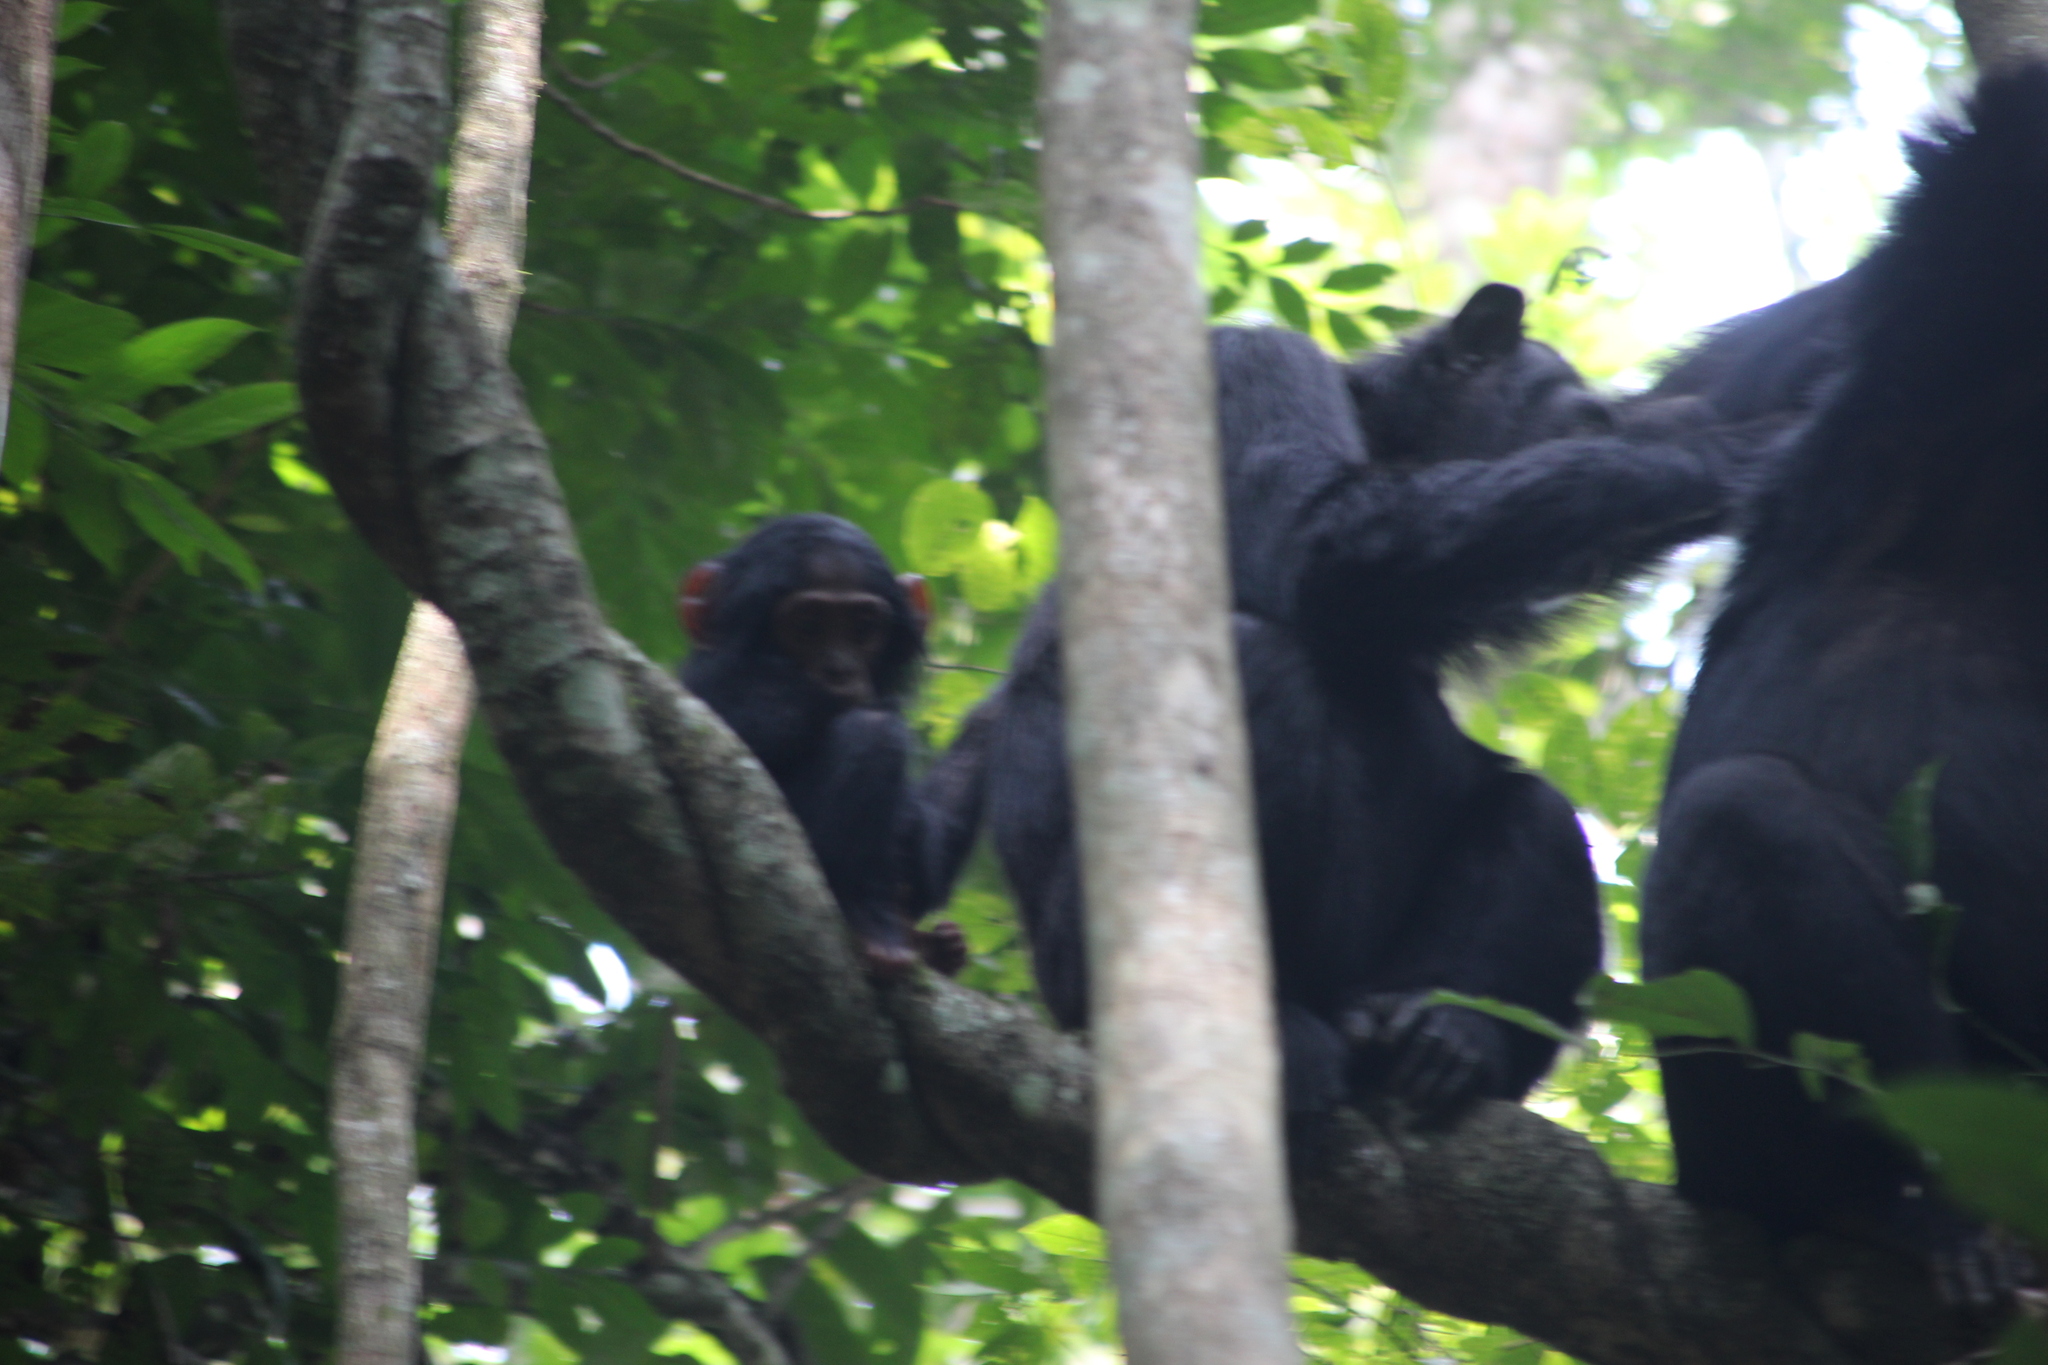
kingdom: Animalia
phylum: Chordata
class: Mammalia
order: Primates
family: Hominidae
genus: Pan
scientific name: Pan troglodytes
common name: Chimpanzee
